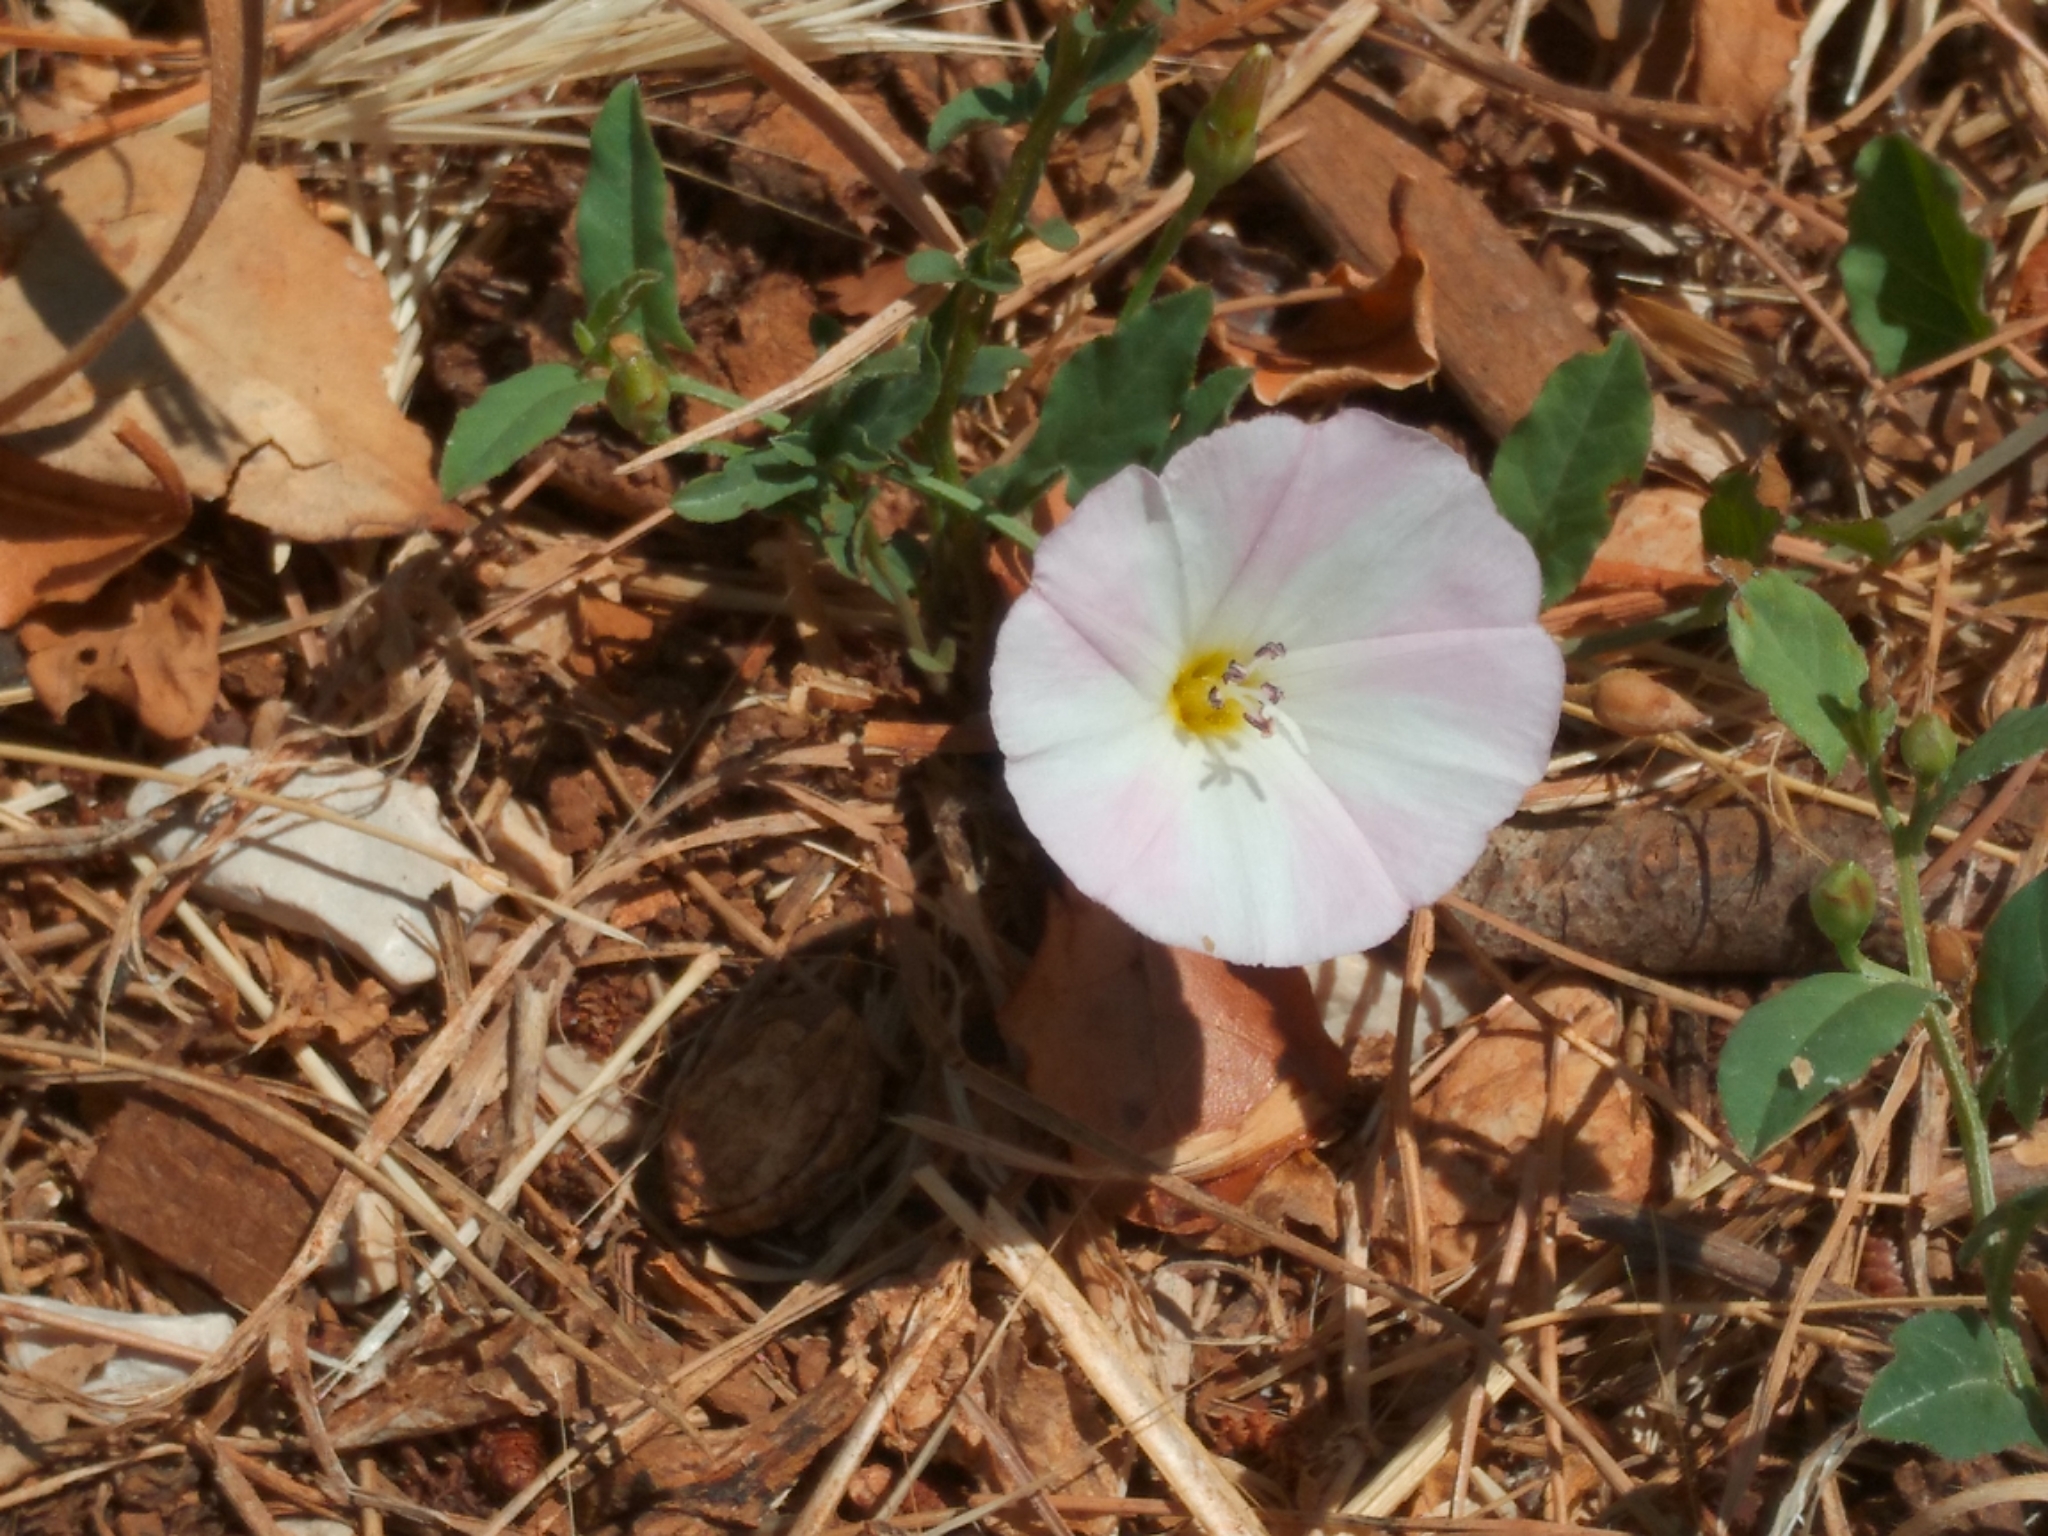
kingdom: Plantae
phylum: Tracheophyta
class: Magnoliopsida
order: Solanales
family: Convolvulaceae
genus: Convolvulus
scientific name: Convolvulus arvensis
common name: Field bindweed
